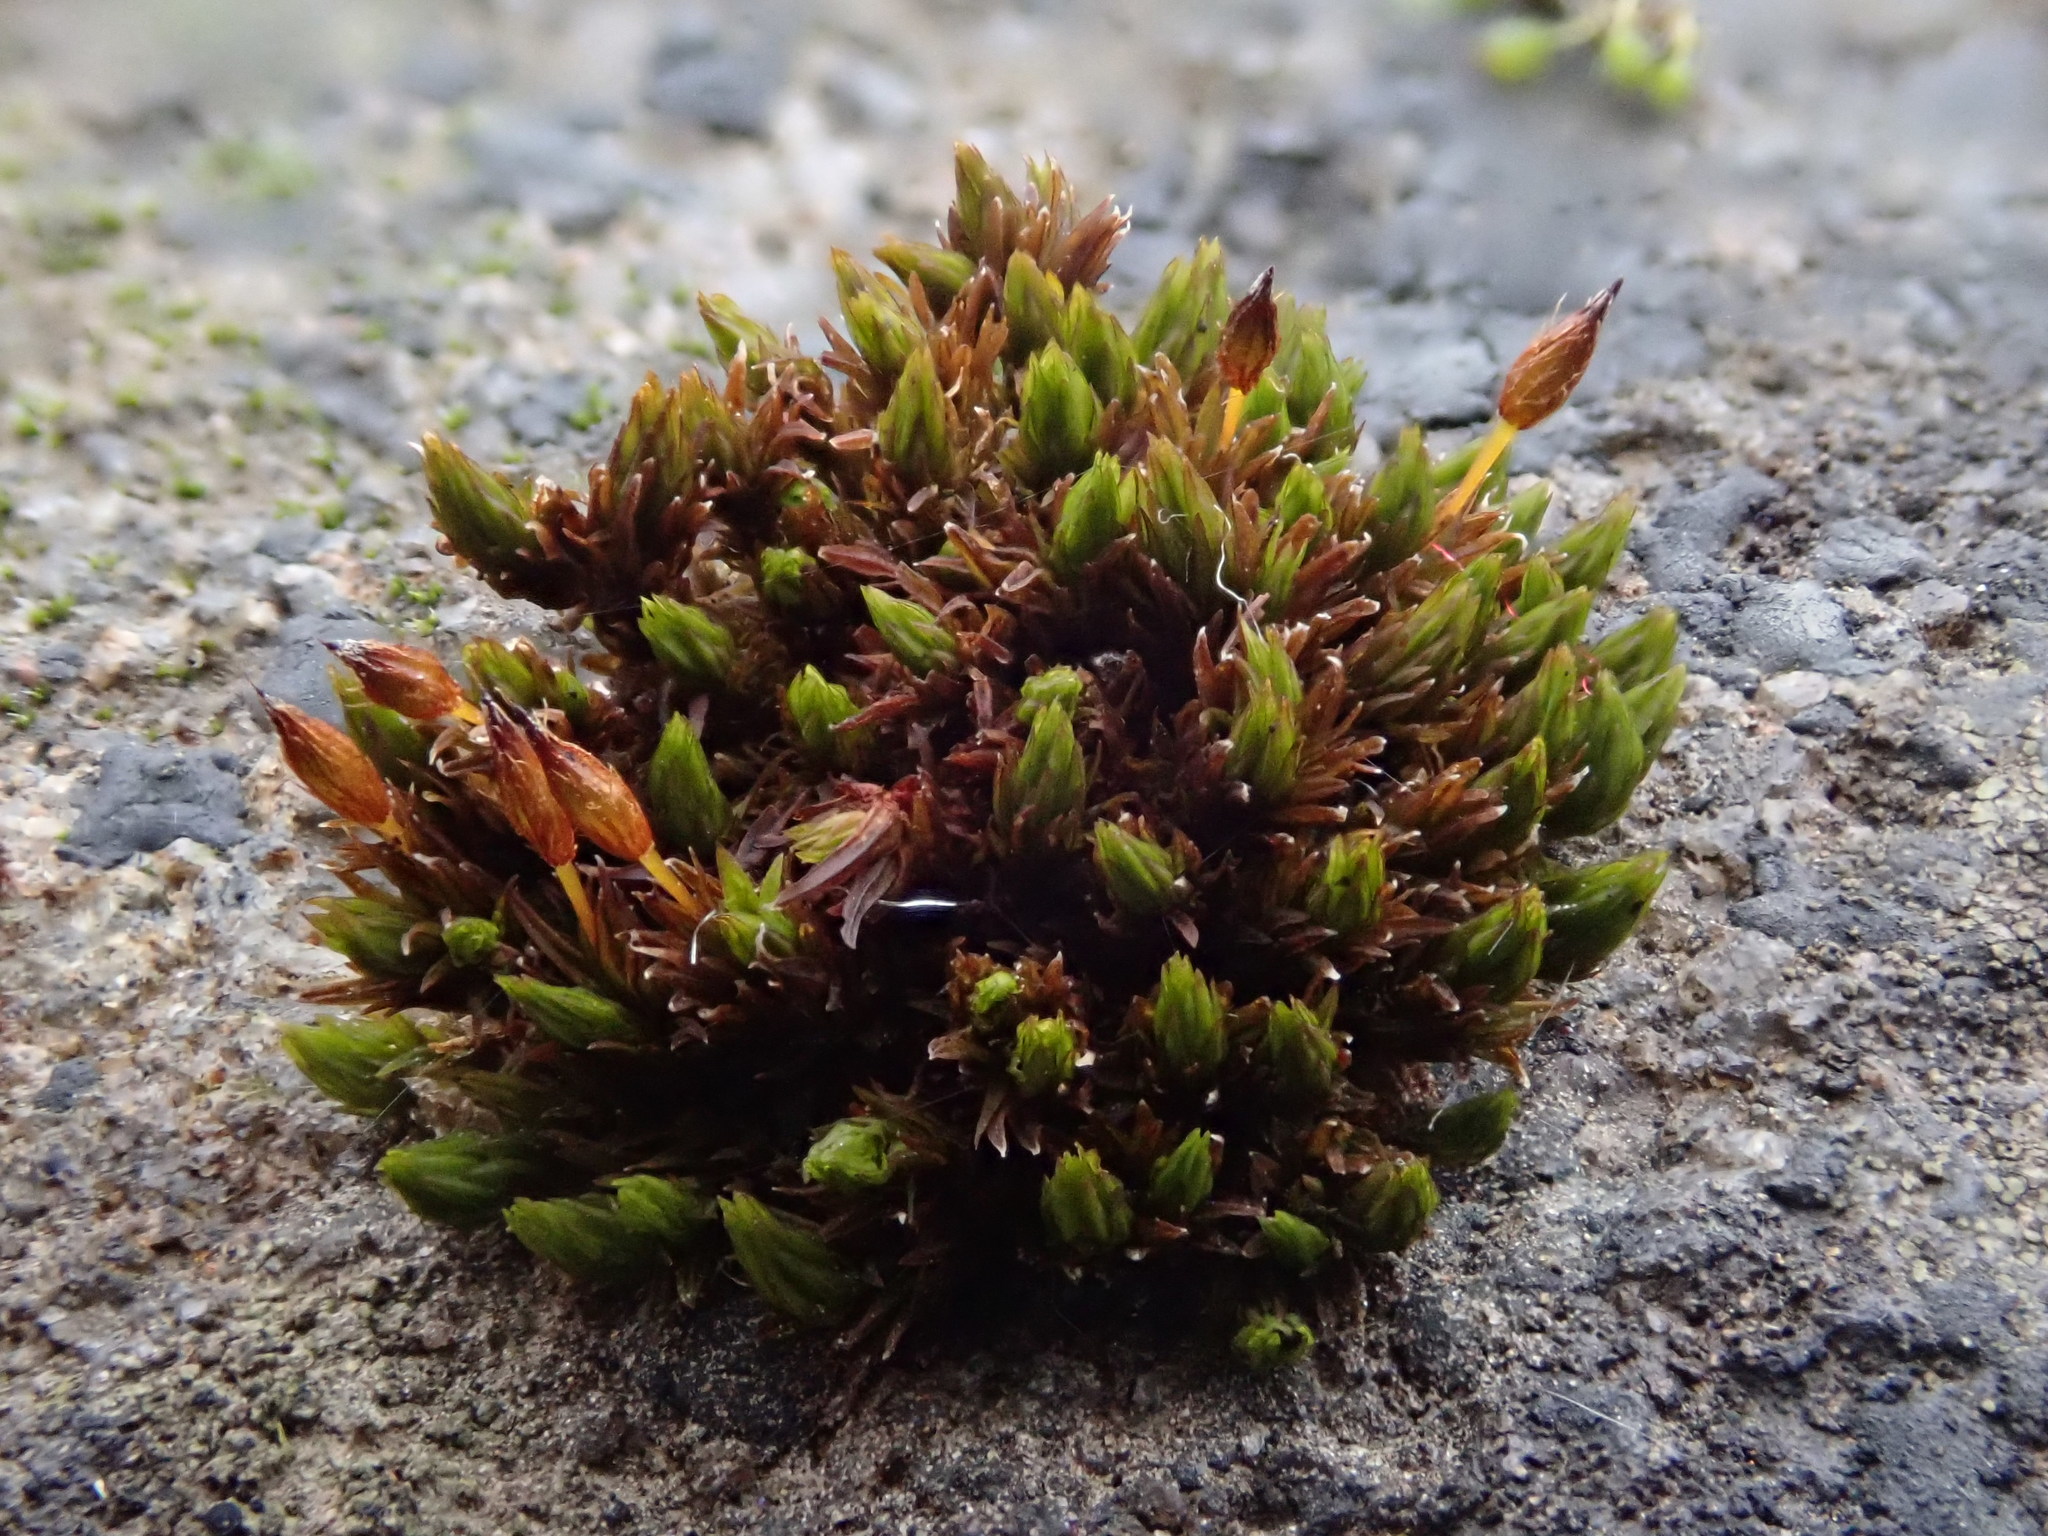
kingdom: Plantae
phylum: Bryophyta
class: Bryopsida
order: Orthotrichales
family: Orthotrichaceae
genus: Orthotrichum
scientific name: Orthotrichum anomalum
